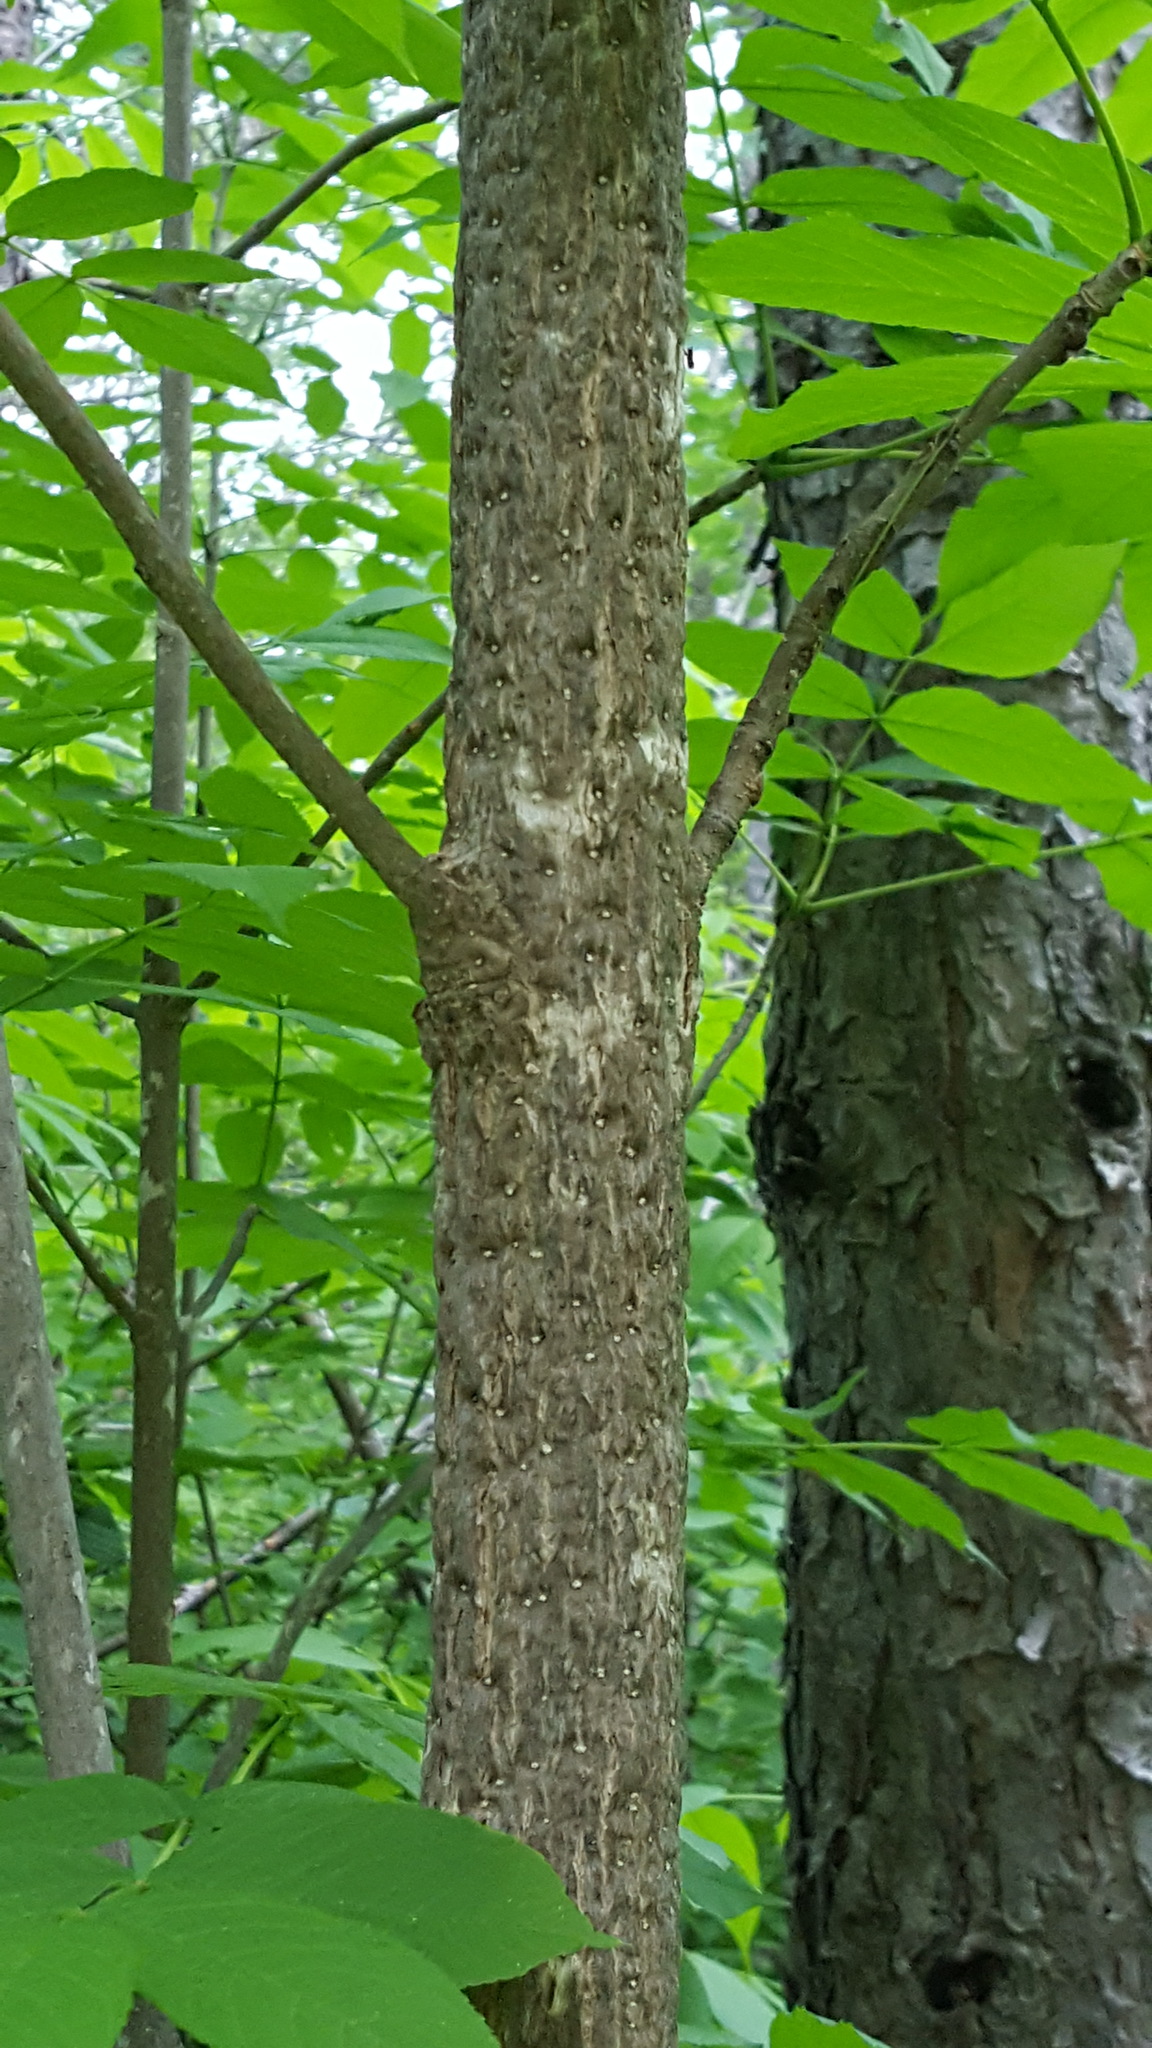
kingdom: Plantae
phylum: Tracheophyta
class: Magnoliopsida
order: Lamiales
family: Oleaceae
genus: Fraxinus
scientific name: Fraxinus nigra
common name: Black ash
